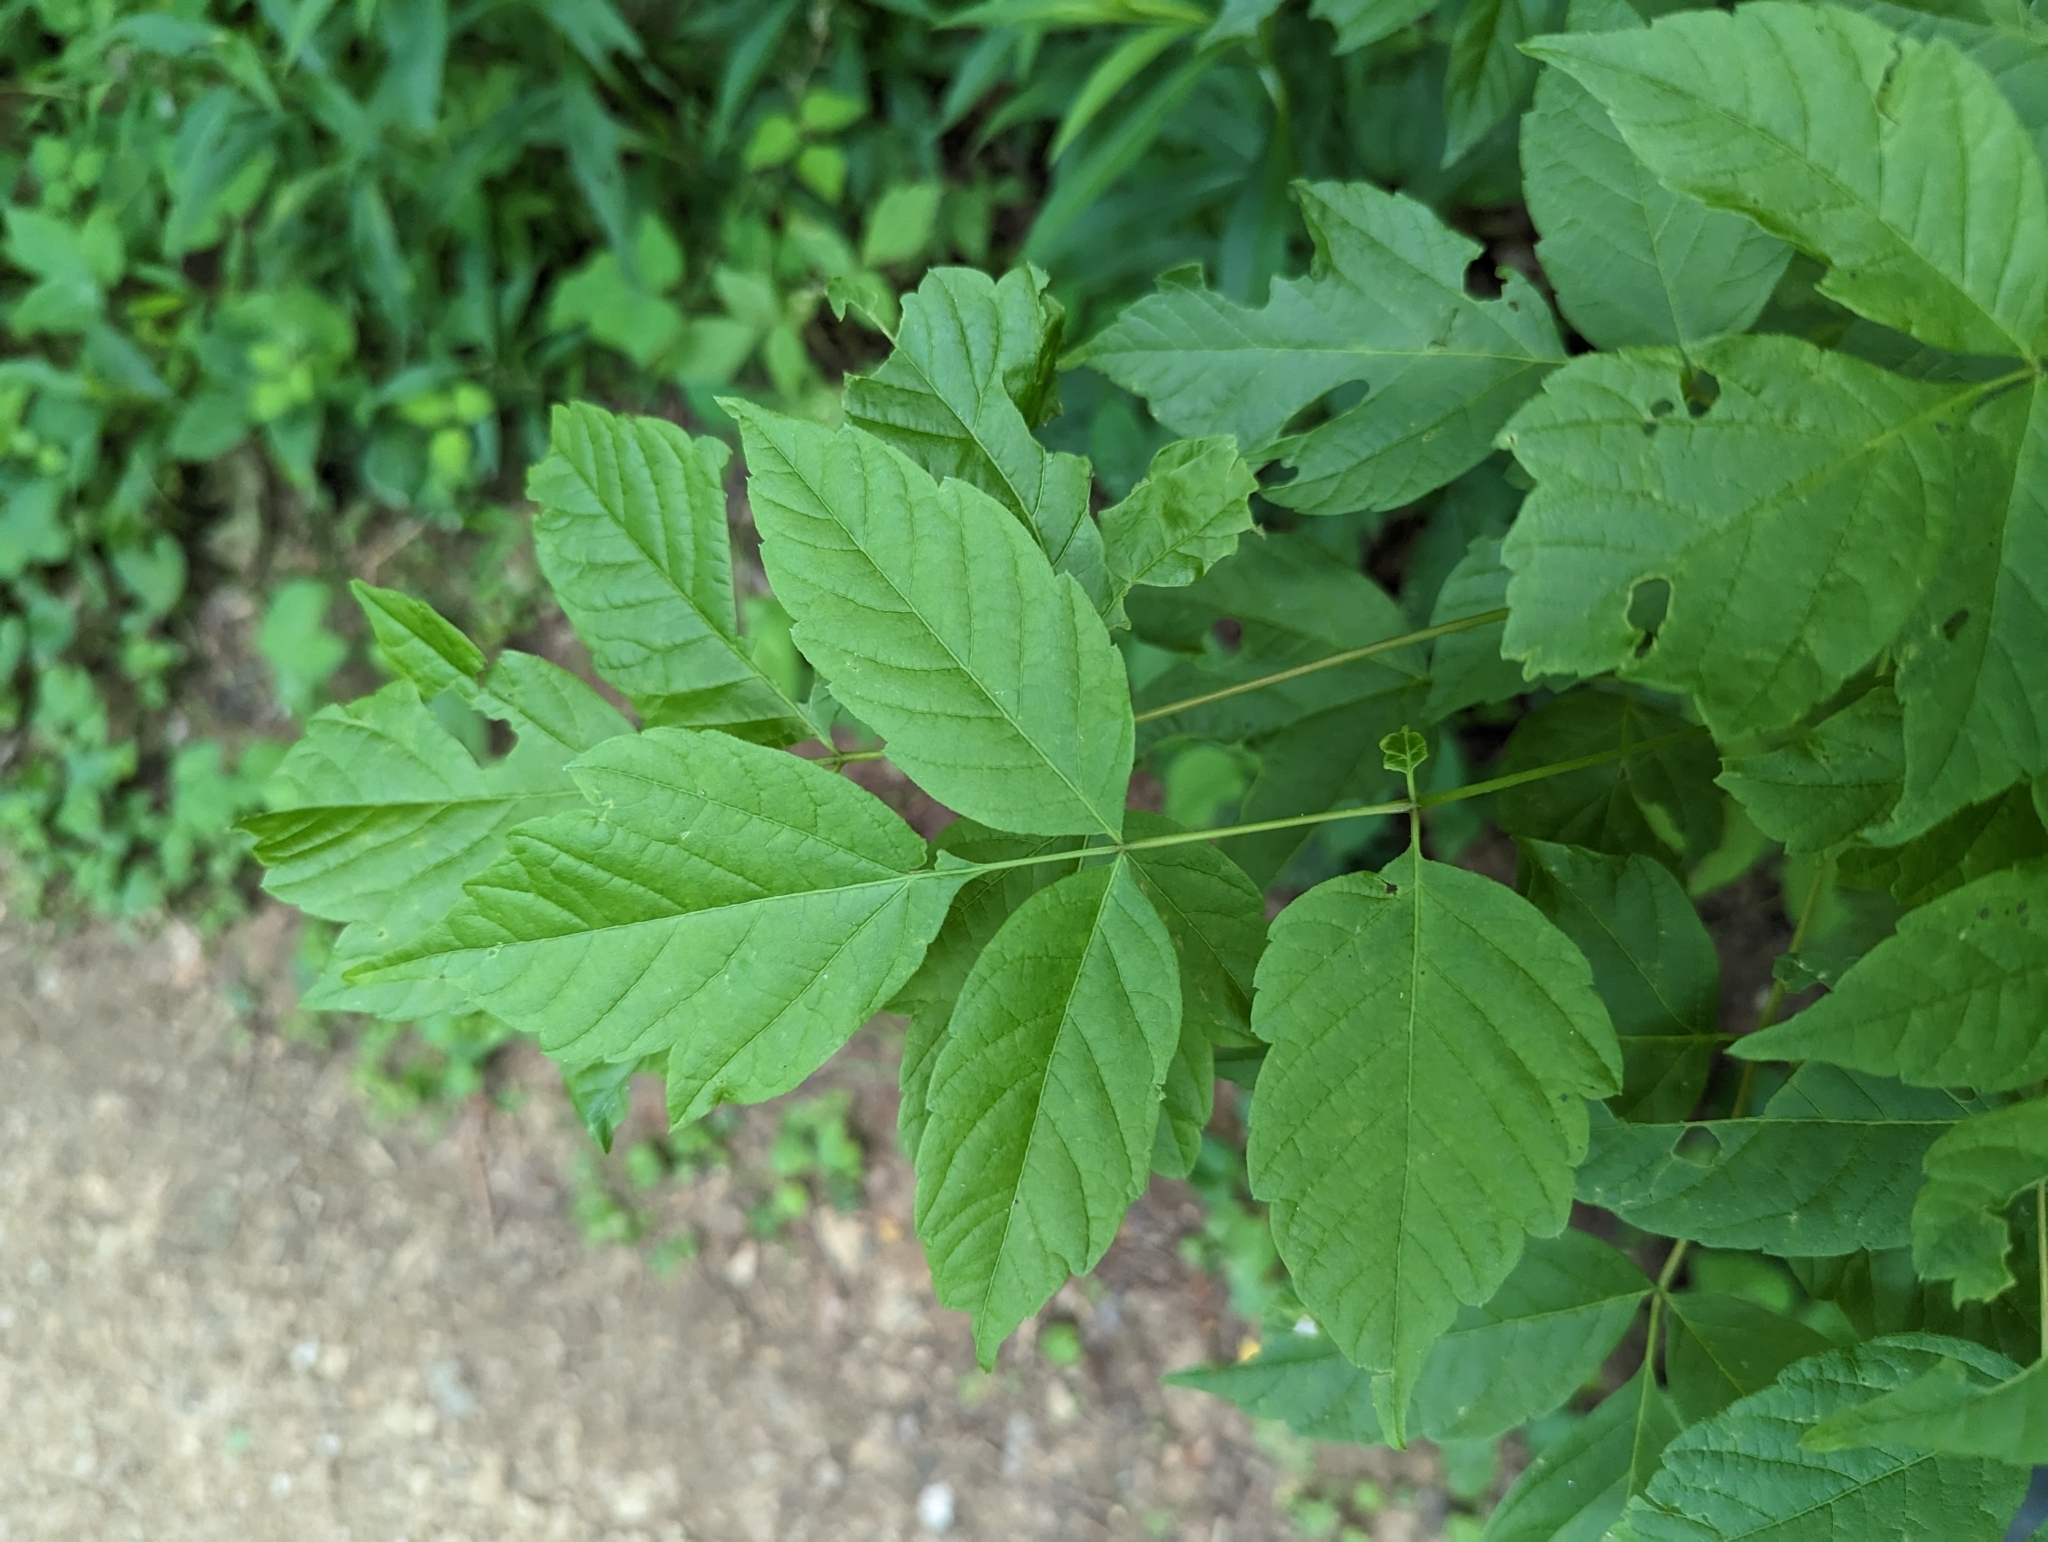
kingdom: Plantae
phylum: Tracheophyta
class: Magnoliopsida
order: Sapindales
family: Sapindaceae
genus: Acer
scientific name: Acer negundo
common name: Ashleaf maple
